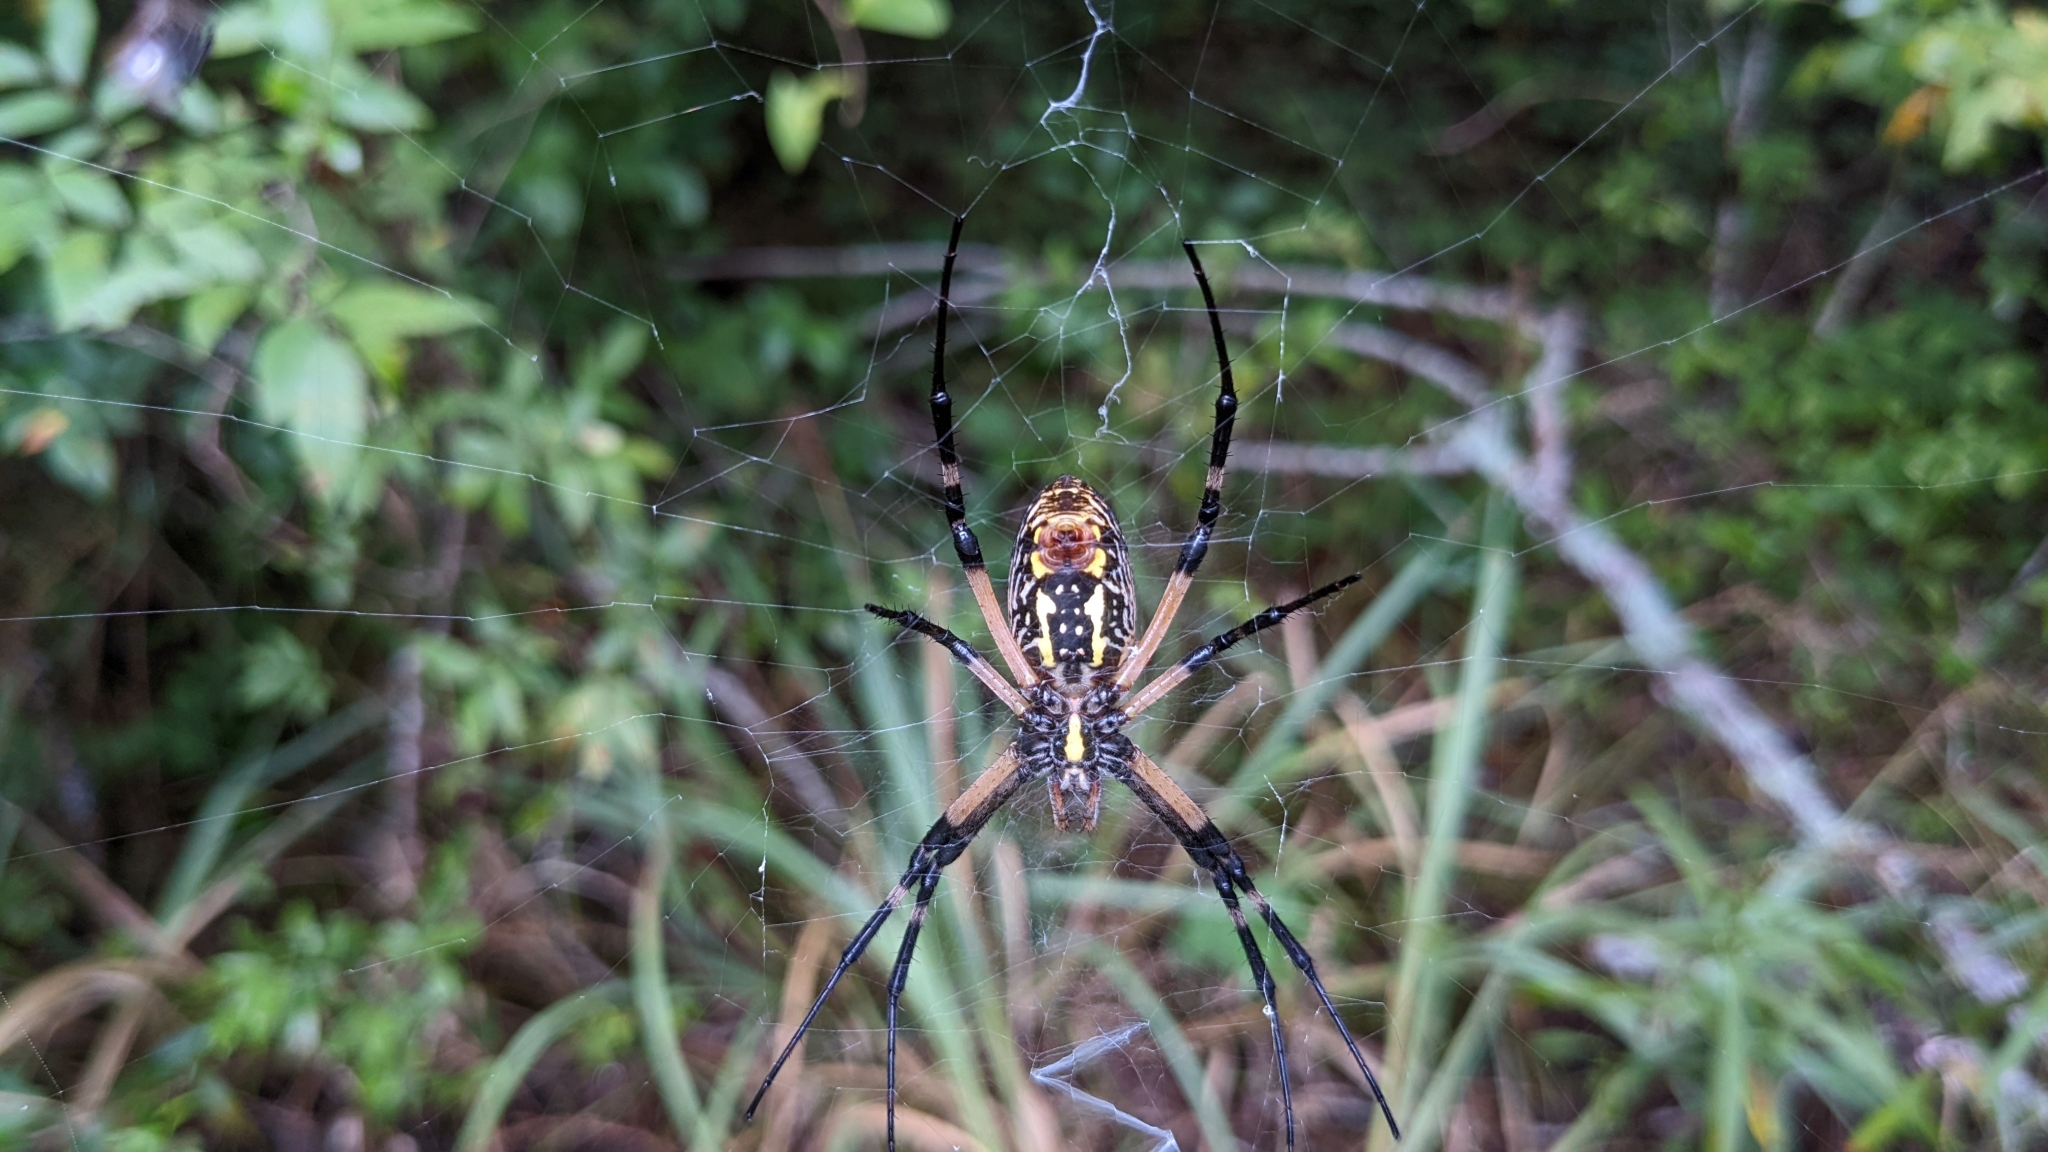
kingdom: Animalia
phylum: Arthropoda
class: Arachnida
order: Araneae
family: Araneidae
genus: Argiope
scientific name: Argiope aurantia
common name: Orb weavers
